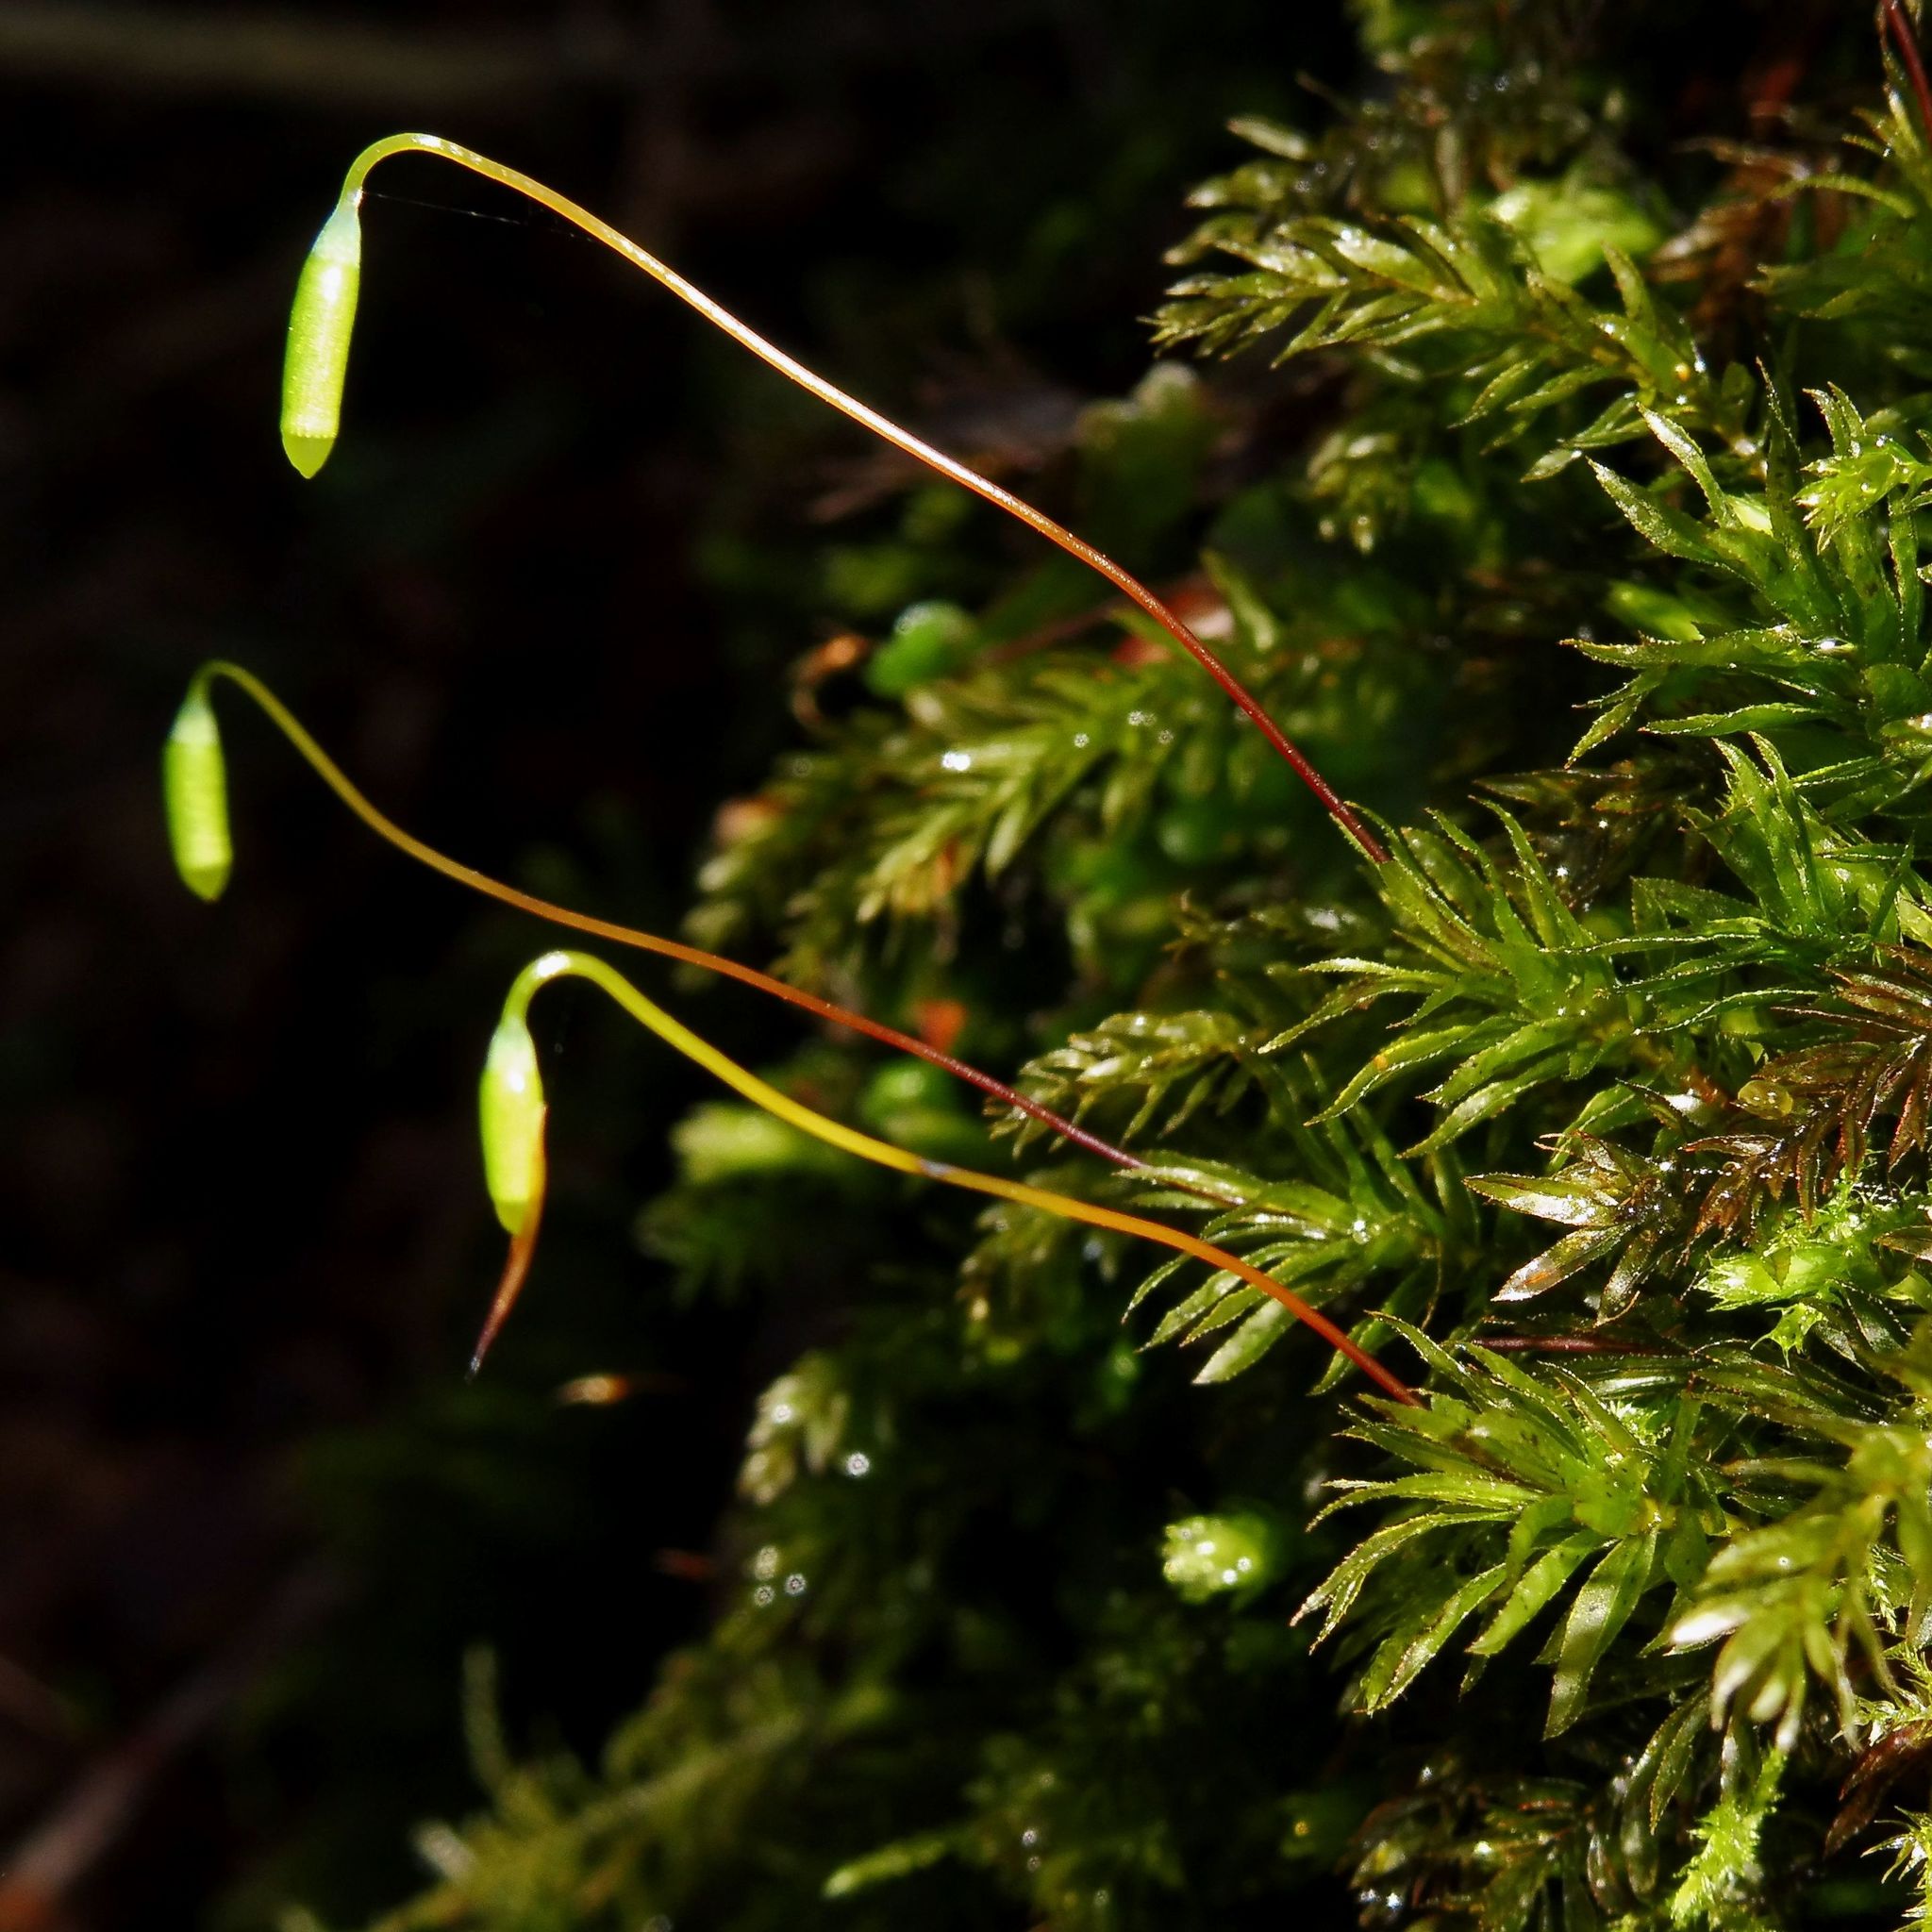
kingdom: Plantae
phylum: Bryophyta
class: Bryopsida
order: Bryales
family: Mniaceae
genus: Mnium
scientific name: Mnium hornum
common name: Swan's-neck leafy moss
